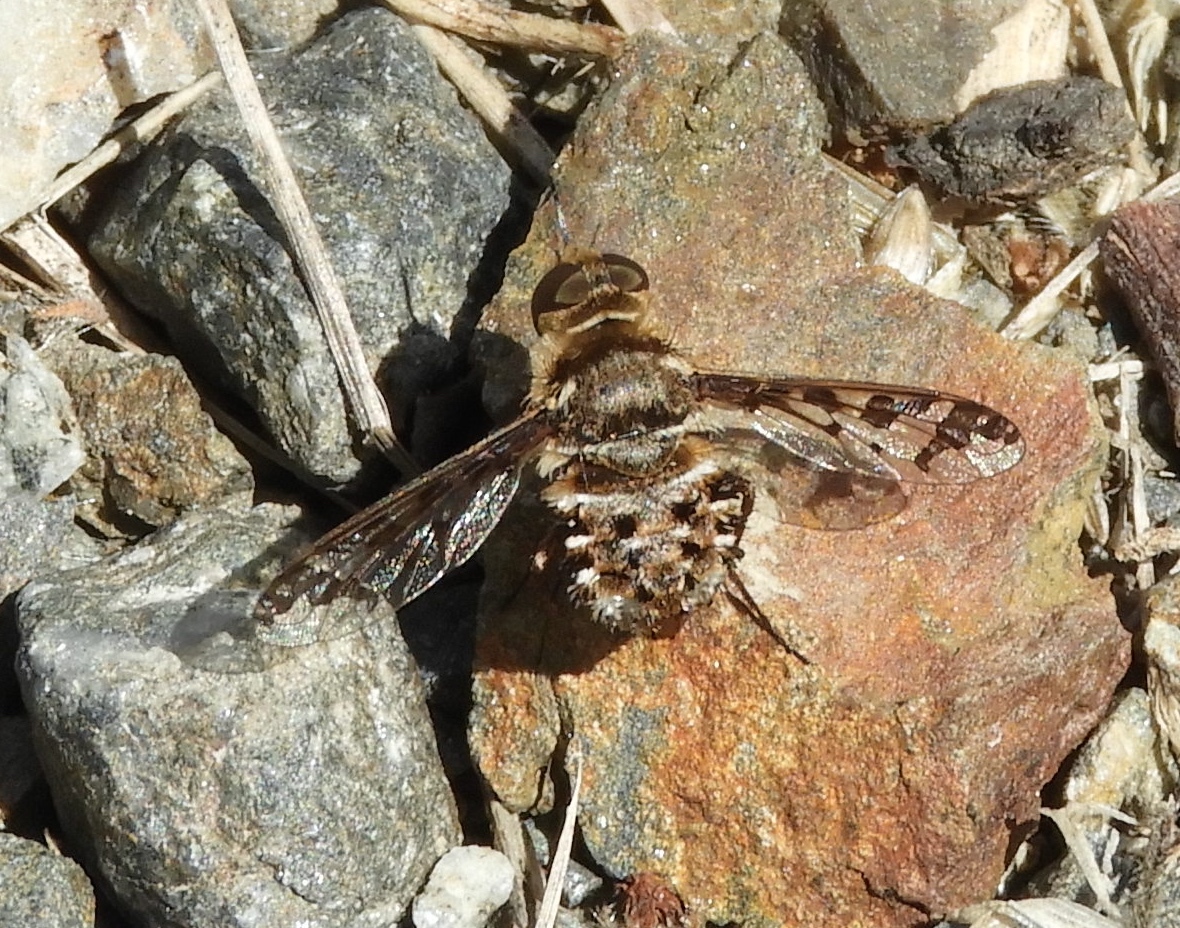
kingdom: Animalia
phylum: Arthropoda
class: Insecta
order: Diptera
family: Bombyliidae
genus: Lepidanthrax
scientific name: Lepidanthrax
